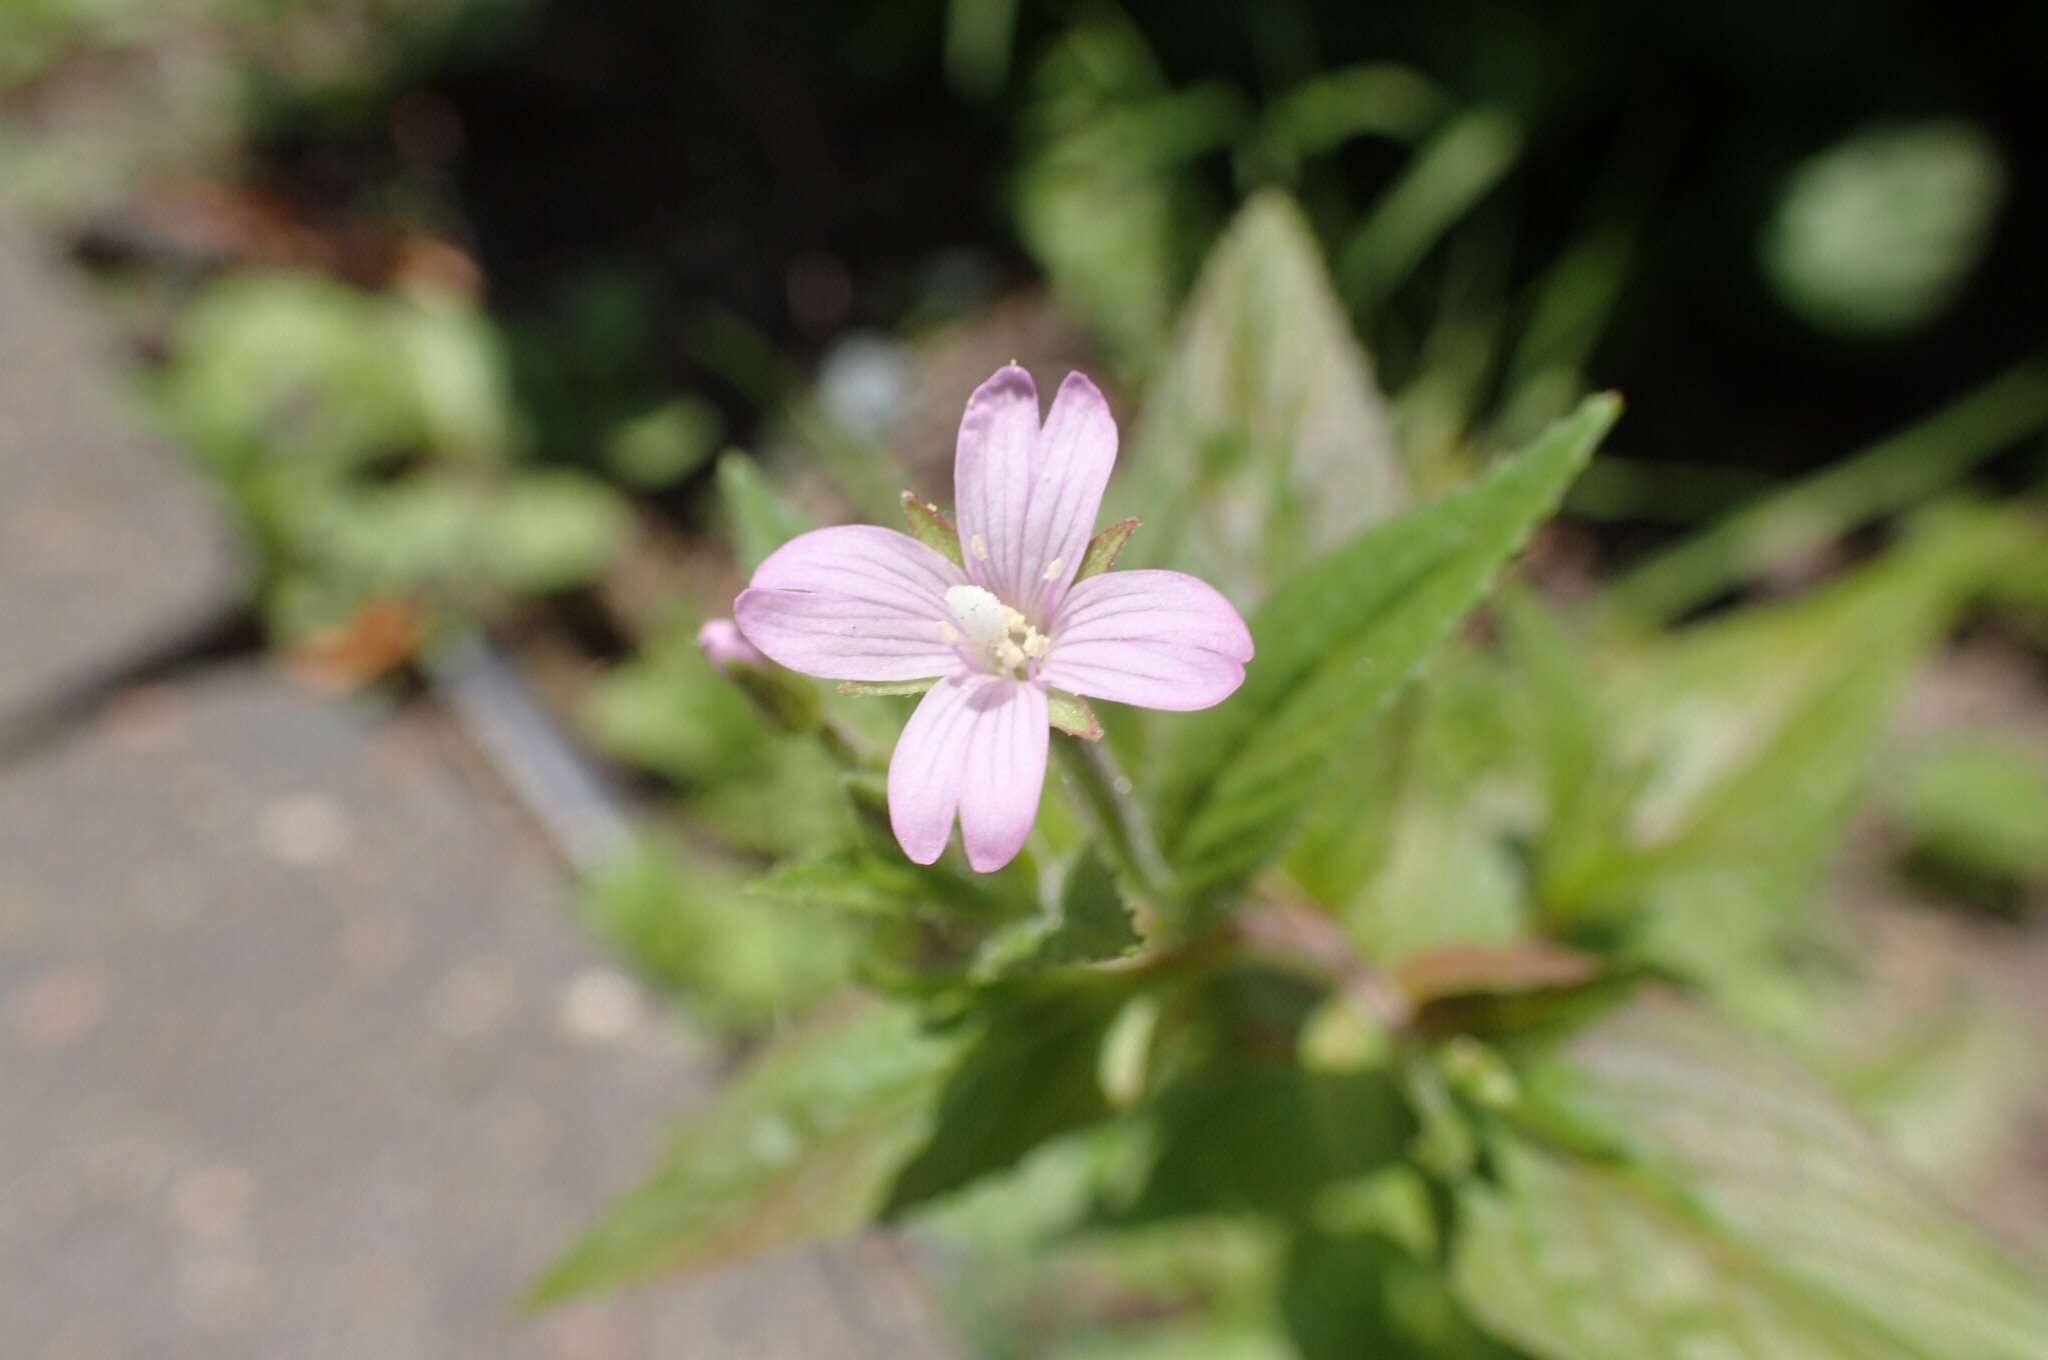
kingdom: Plantae
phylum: Tracheophyta
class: Magnoliopsida
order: Myrtales
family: Onagraceae
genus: Epilobium
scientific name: Epilobium ciliatum
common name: American willowherb
